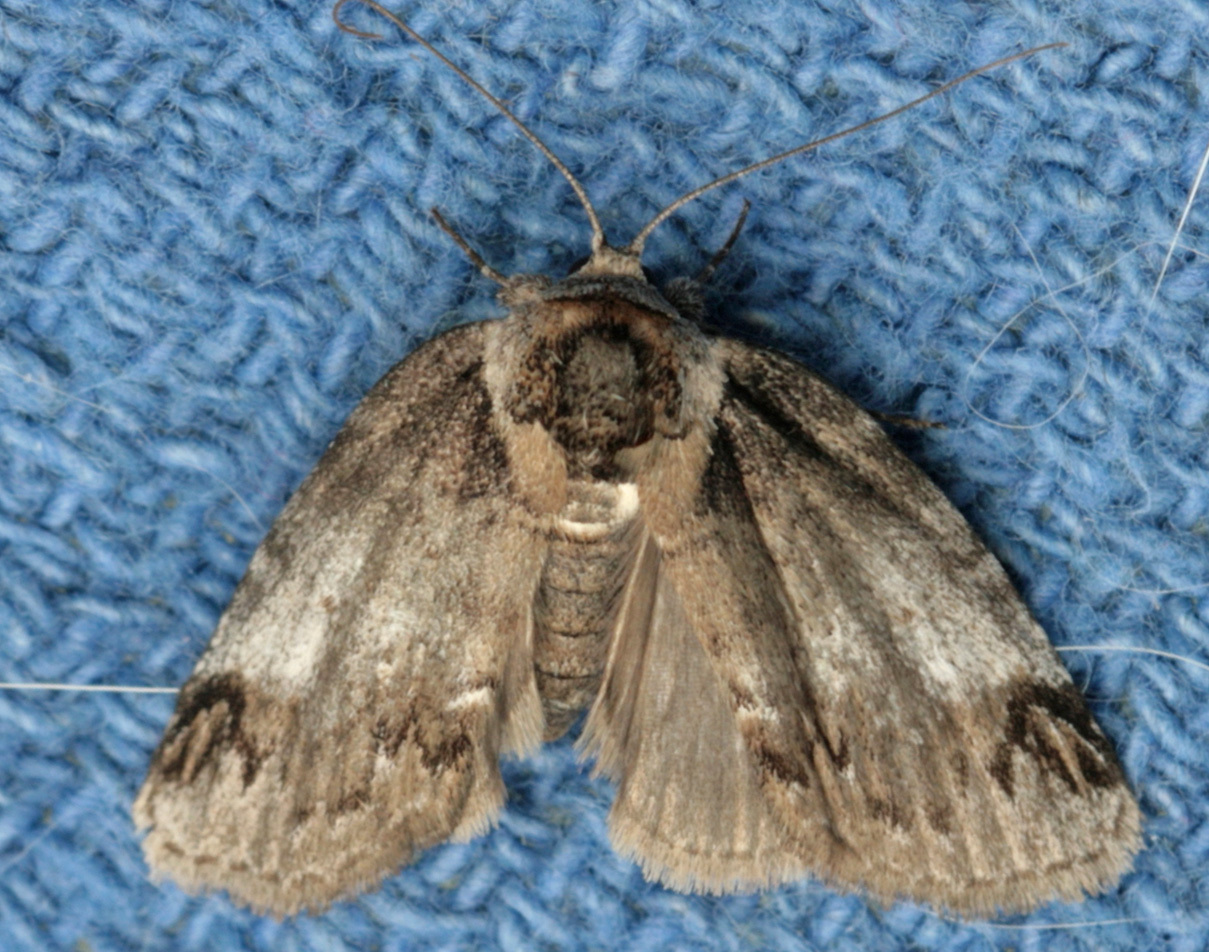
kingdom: Animalia
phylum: Arthropoda
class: Insecta
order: Lepidoptera
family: Nolidae
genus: Baileya
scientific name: Baileya dormitans
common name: Sleeping baileya moth
